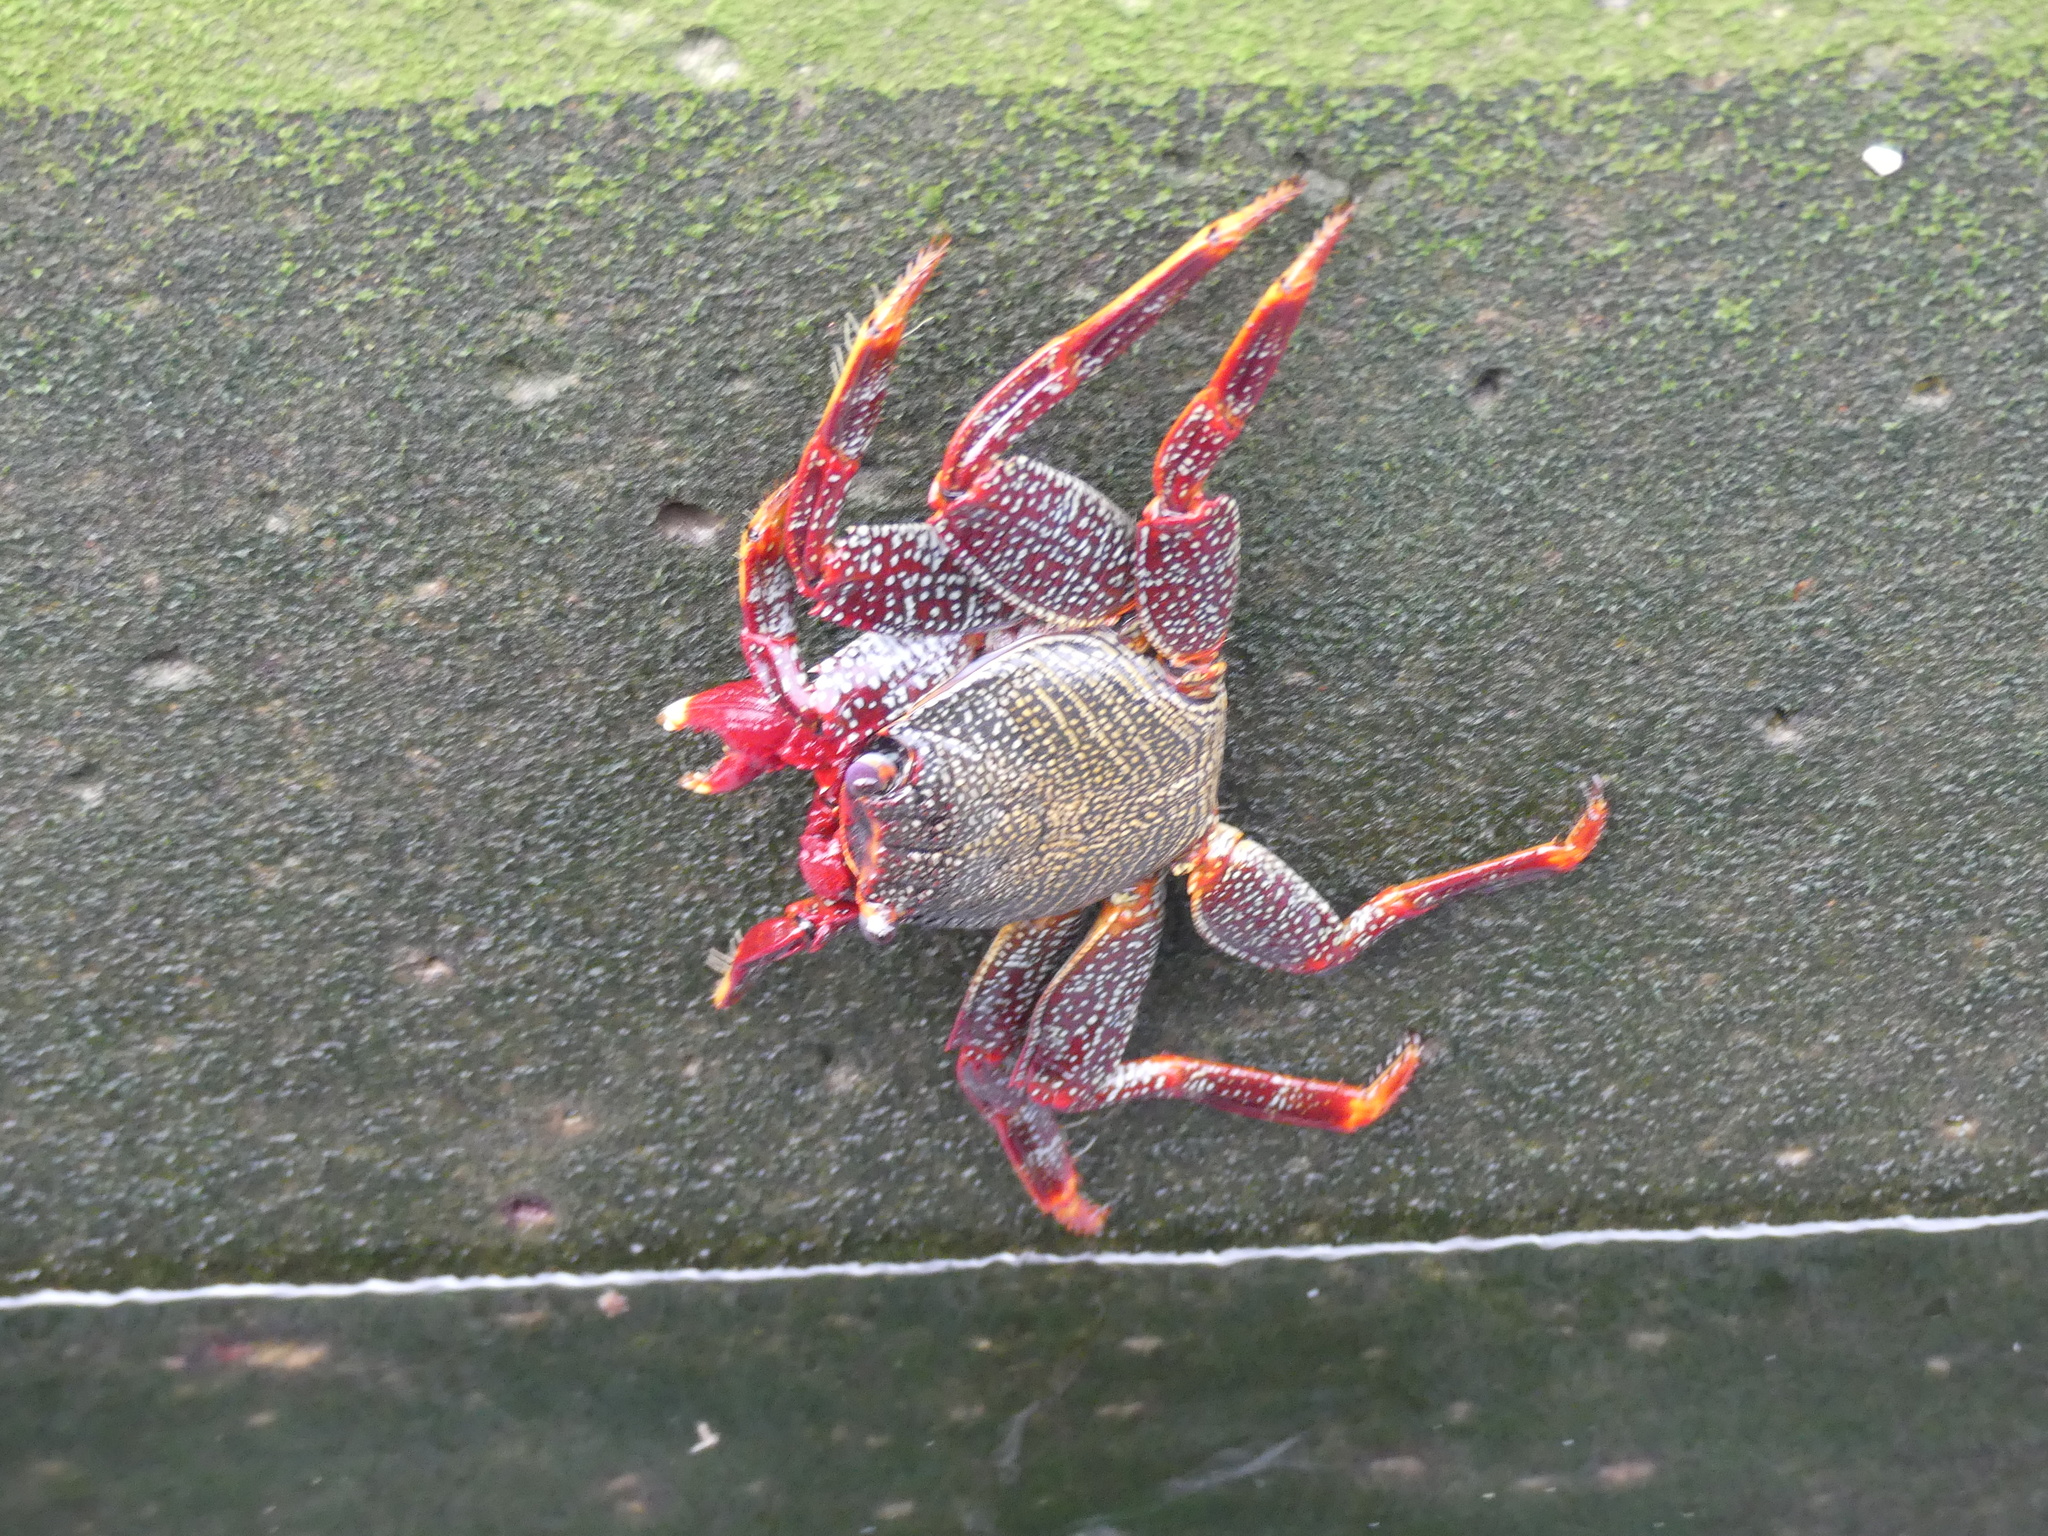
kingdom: Animalia
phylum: Arthropoda
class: Malacostraca
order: Decapoda
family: Grapsidae
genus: Grapsus
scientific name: Grapsus adscensionis
